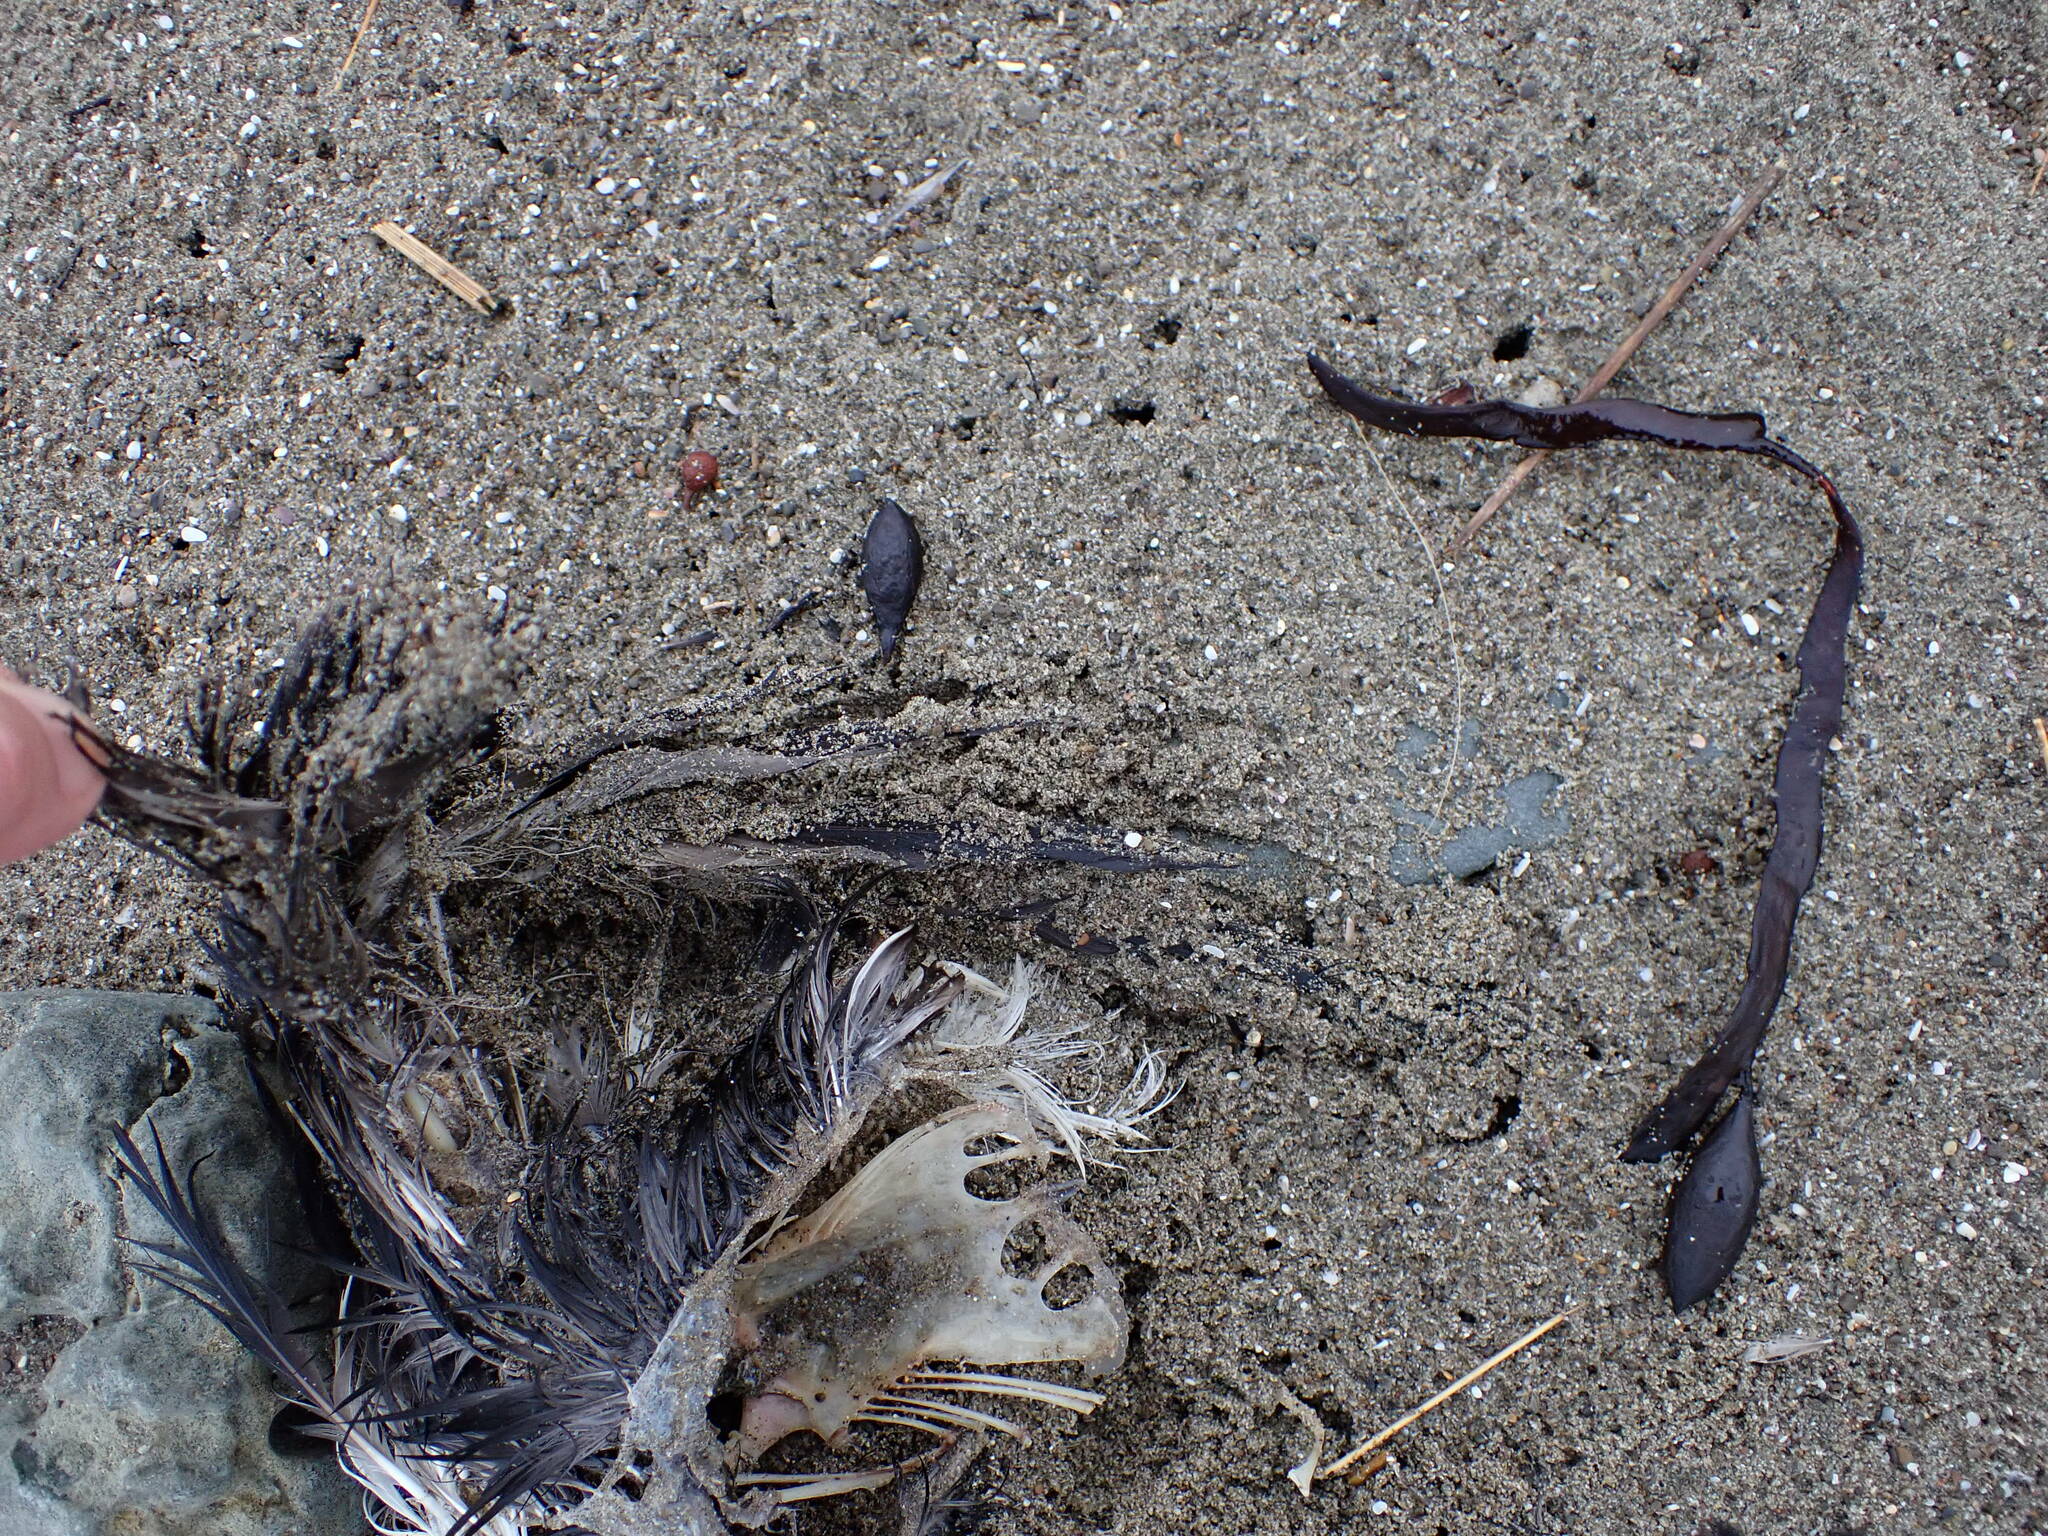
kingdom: Animalia
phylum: Chordata
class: Aves
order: Procellariiformes
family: Procellariidae
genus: Puffinus
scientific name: Puffinus gavia
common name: Fluttering shearwater
